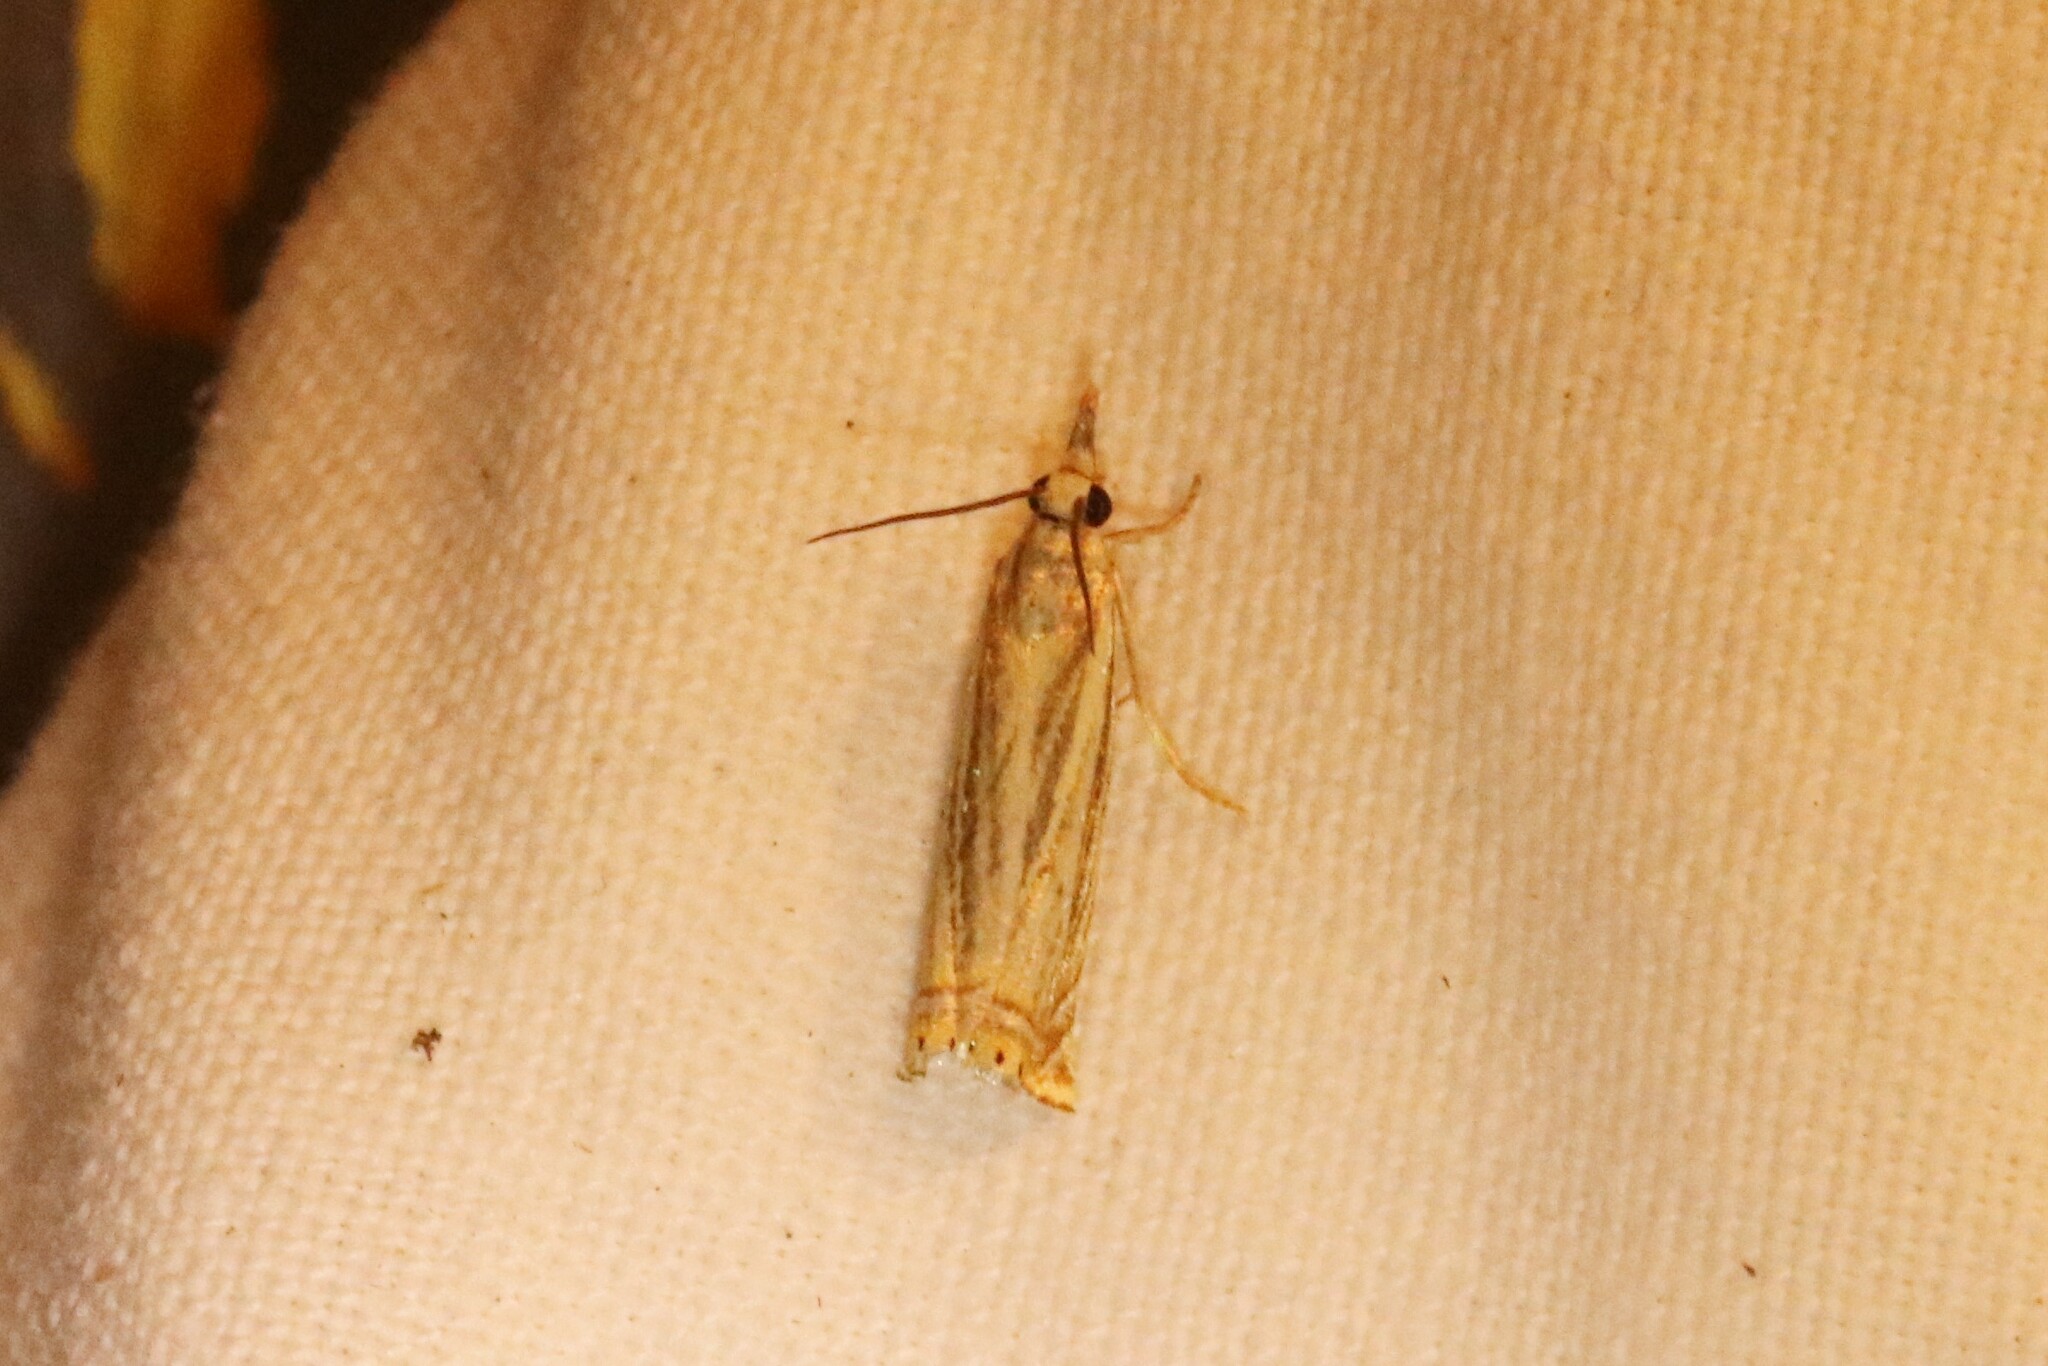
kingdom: Animalia
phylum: Arthropoda
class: Insecta
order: Lepidoptera
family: Crambidae
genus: Chrysoteuchia
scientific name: Chrysoteuchia topiarius
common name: Topiary grass-veneer
